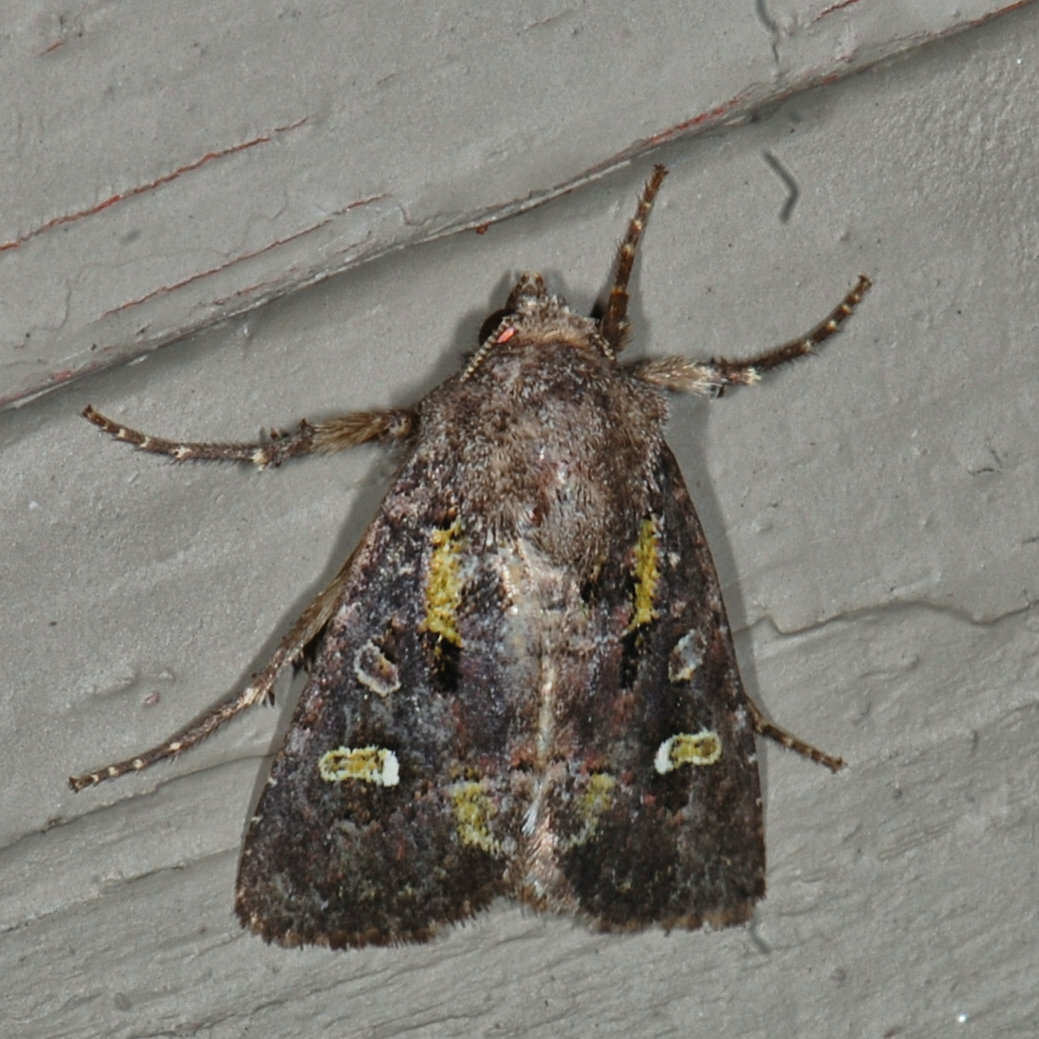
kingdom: Animalia
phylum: Arthropoda
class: Insecta
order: Lepidoptera
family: Noctuidae
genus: Lacinipolia
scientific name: Lacinipolia renigera
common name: Kidney-spotted minor
